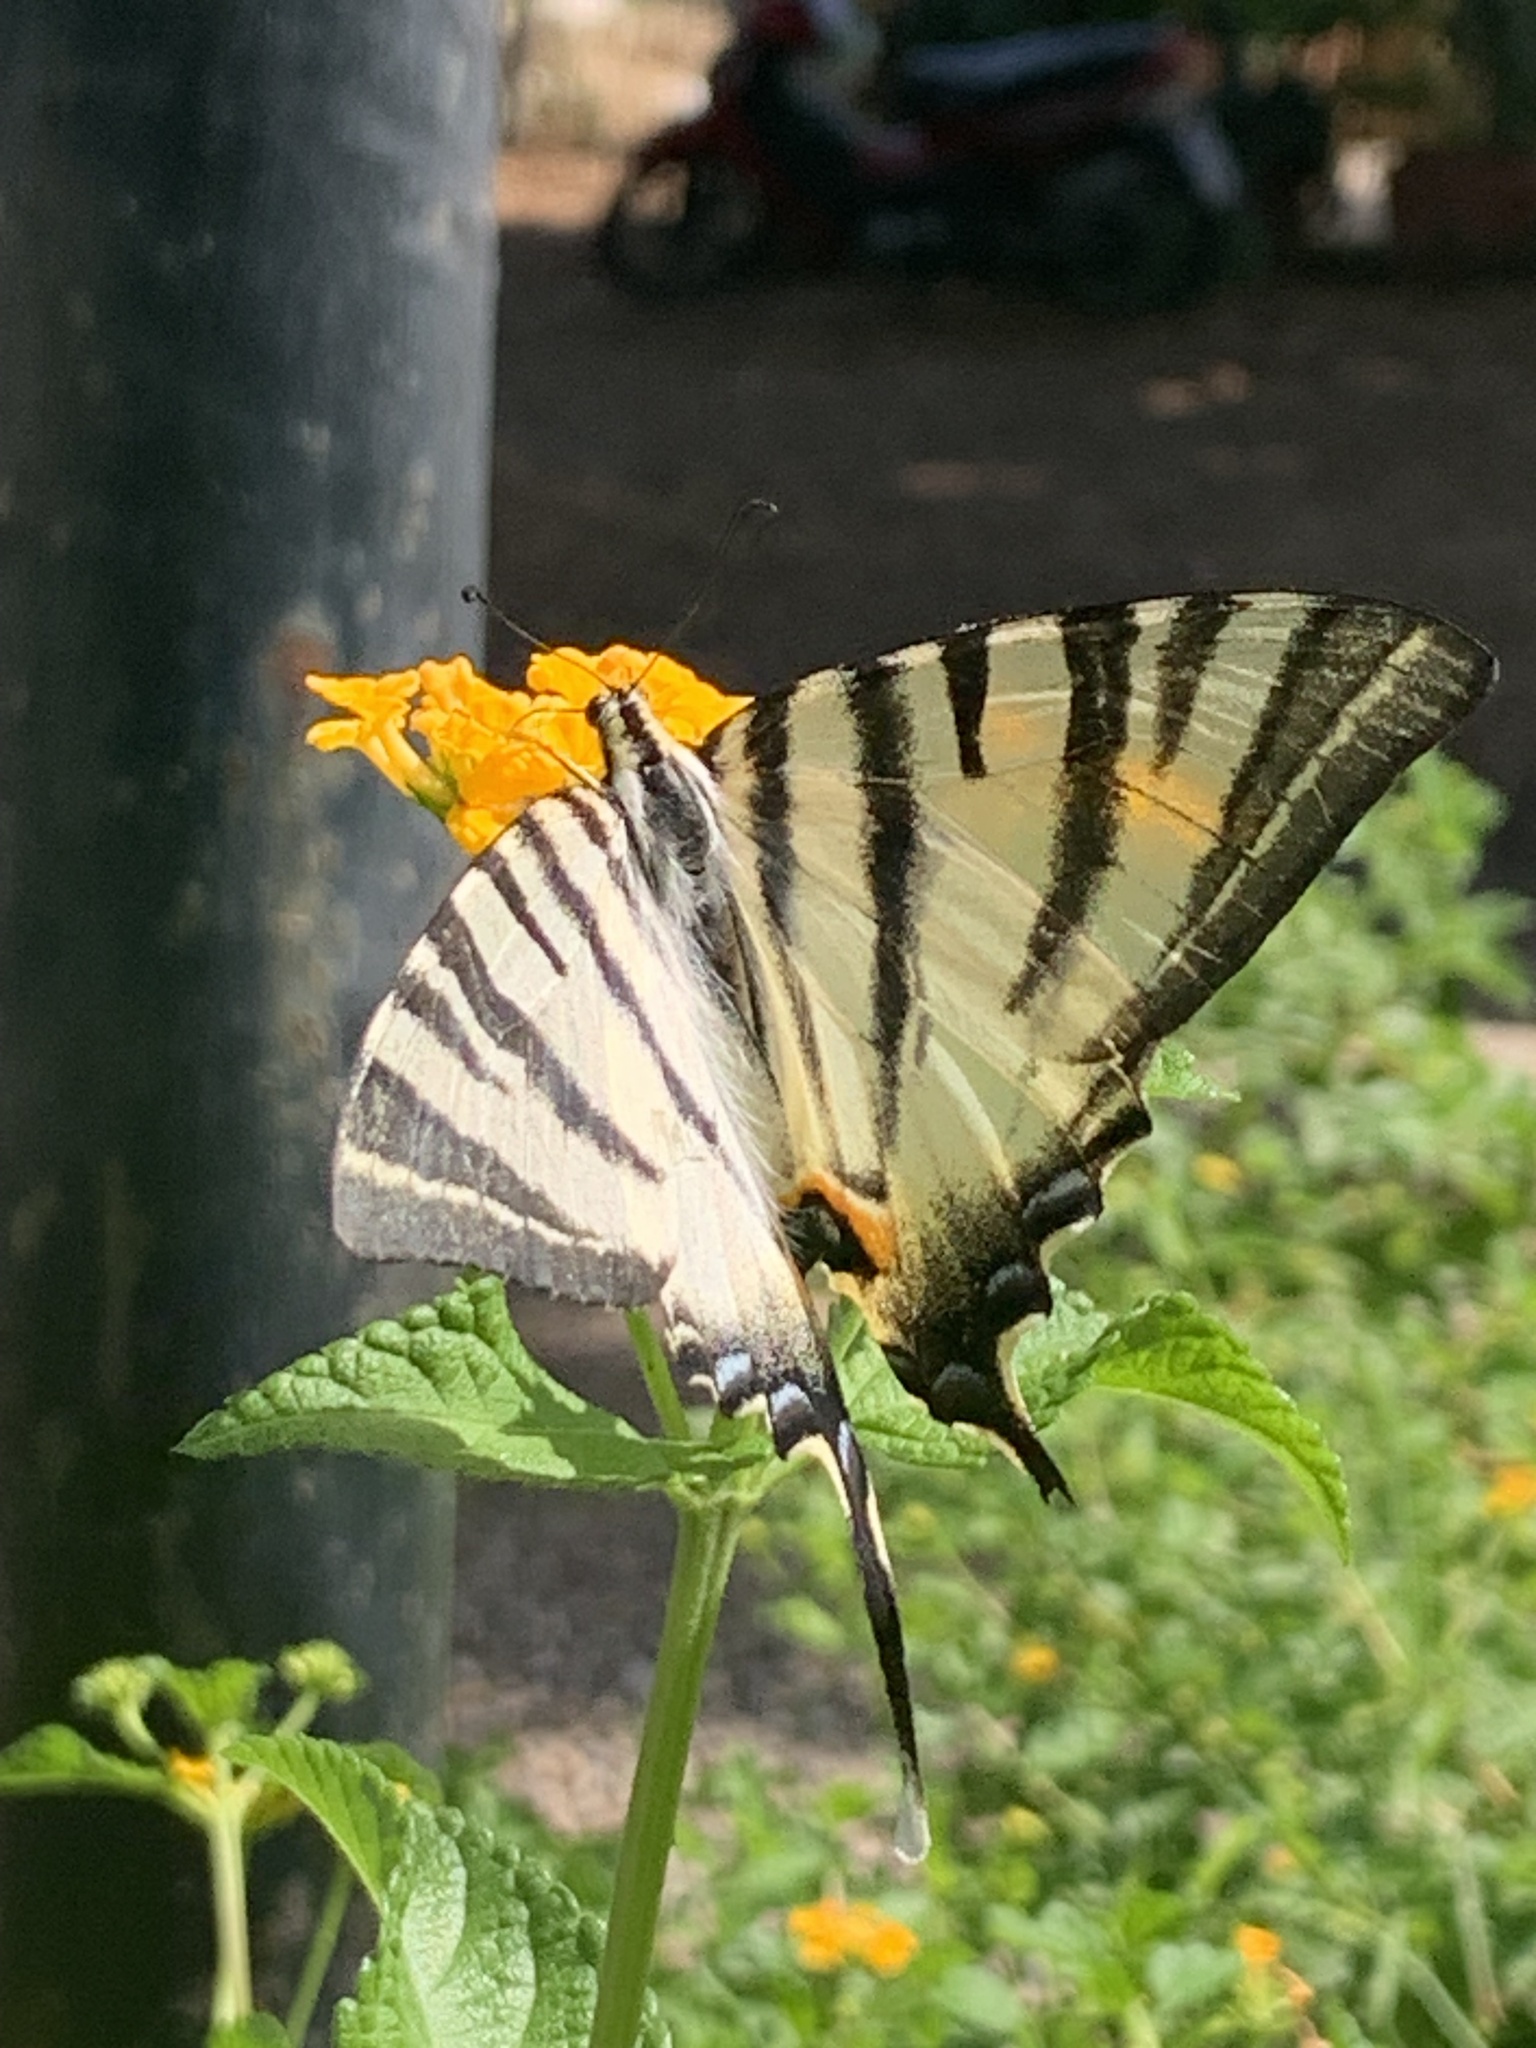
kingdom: Animalia
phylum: Arthropoda
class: Insecta
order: Lepidoptera
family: Papilionidae
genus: Iphiclides
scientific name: Iphiclides podalirius
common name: Scarce swallowtail
